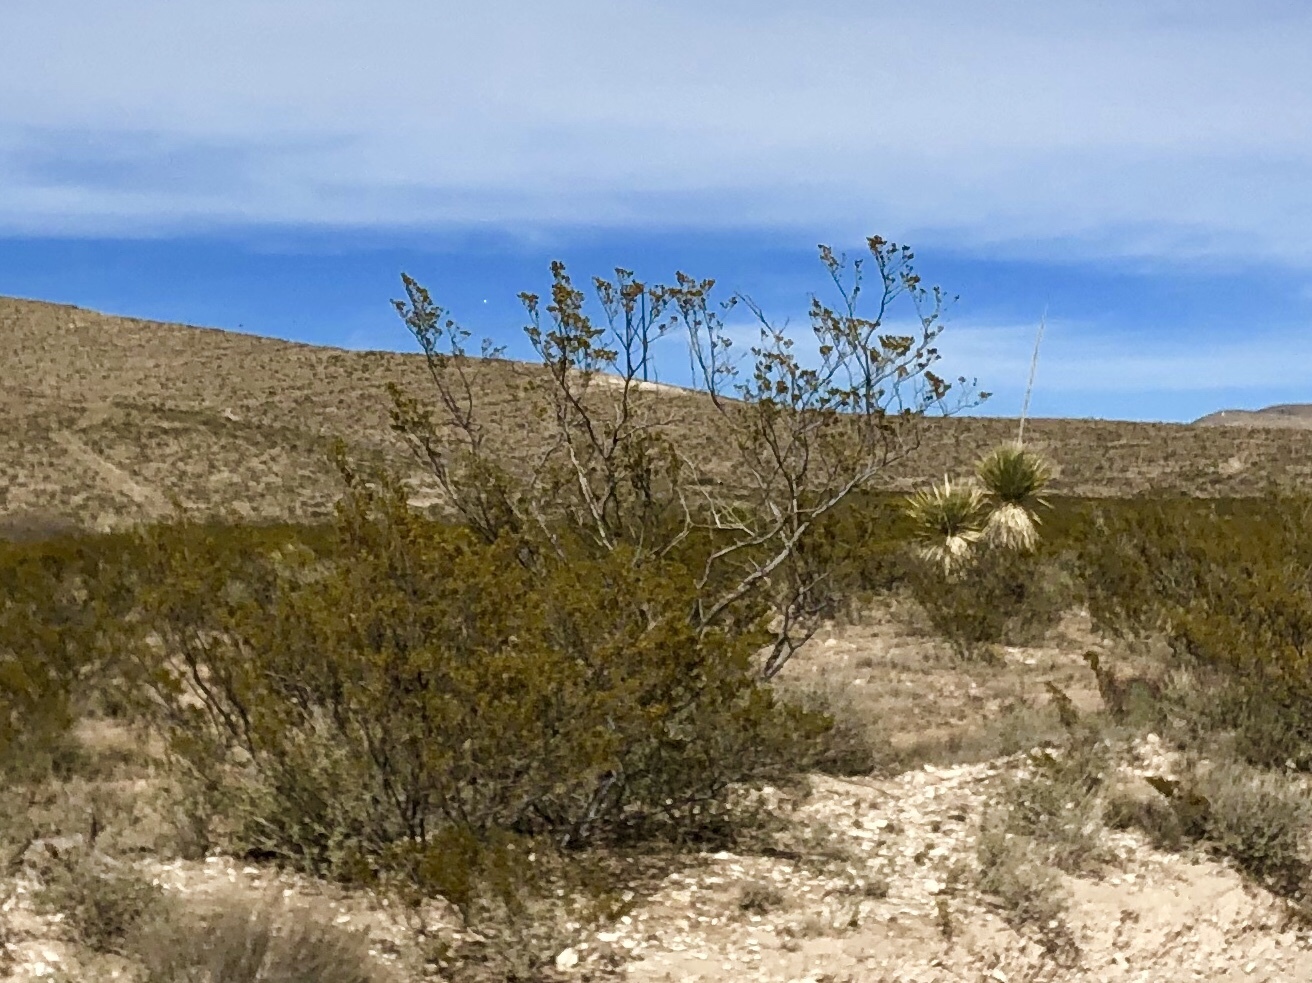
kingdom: Plantae
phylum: Tracheophyta
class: Magnoliopsida
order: Zygophyllales
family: Zygophyllaceae
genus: Larrea
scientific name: Larrea tridentata
